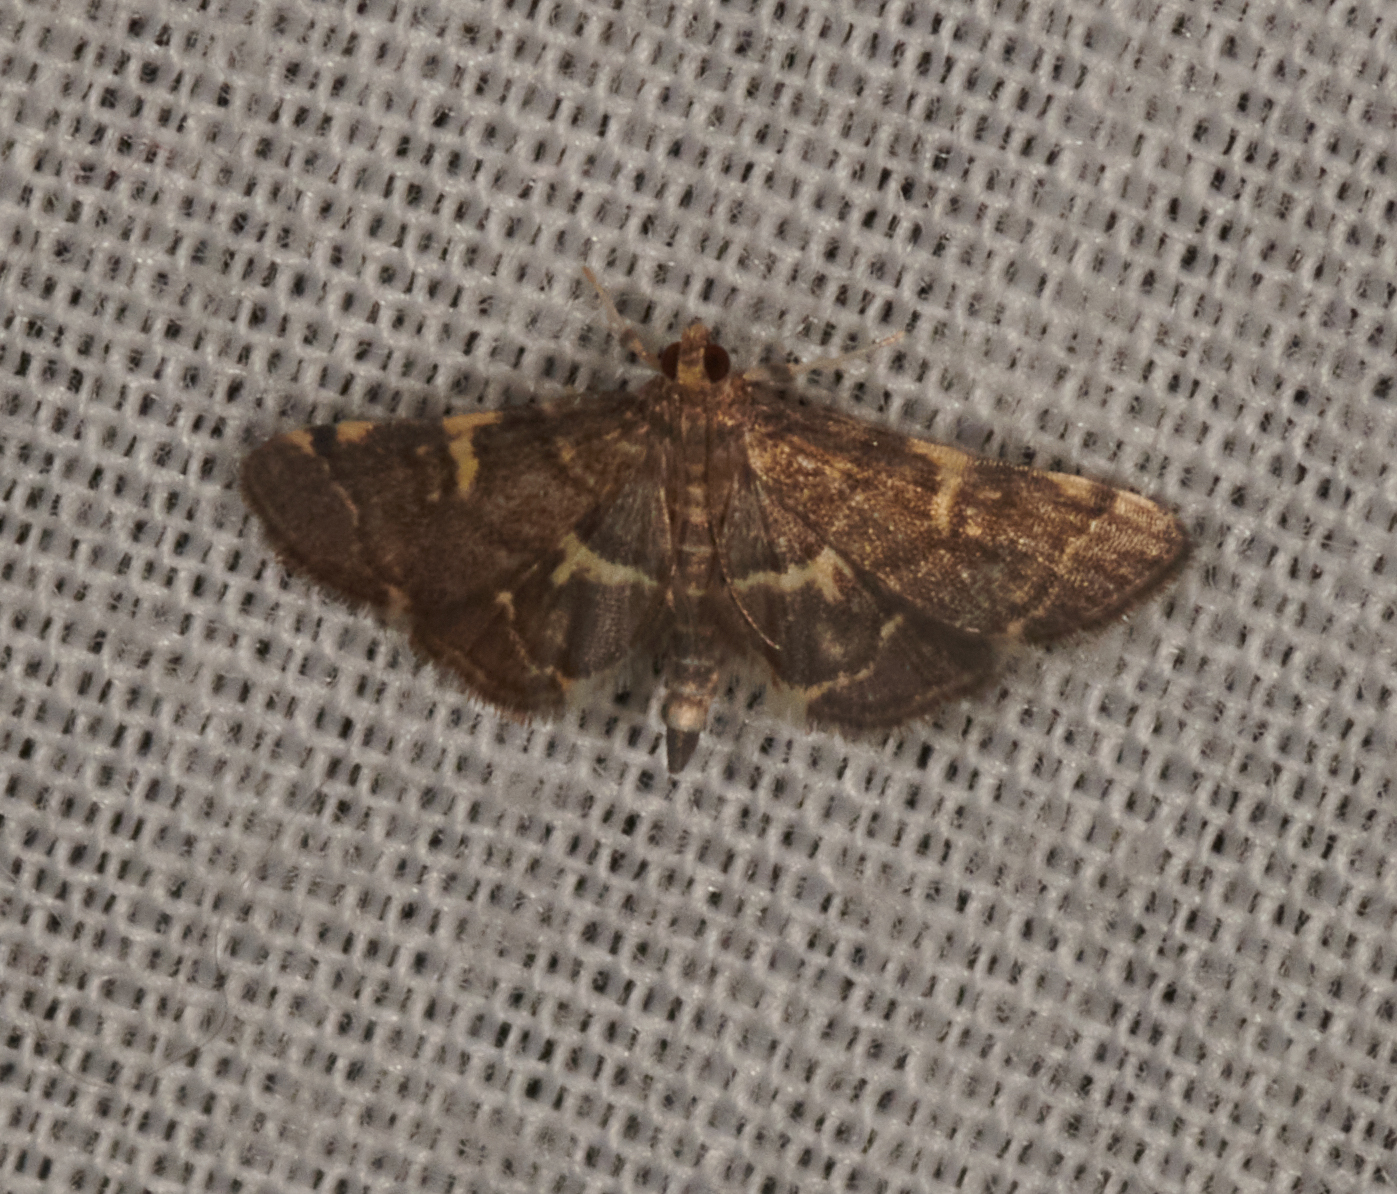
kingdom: Animalia
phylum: Arthropoda
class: Insecta
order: Lepidoptera
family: Crambidae
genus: Anageshna
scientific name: Anageshna primordialis
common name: Yellow-spotted webworm moth
